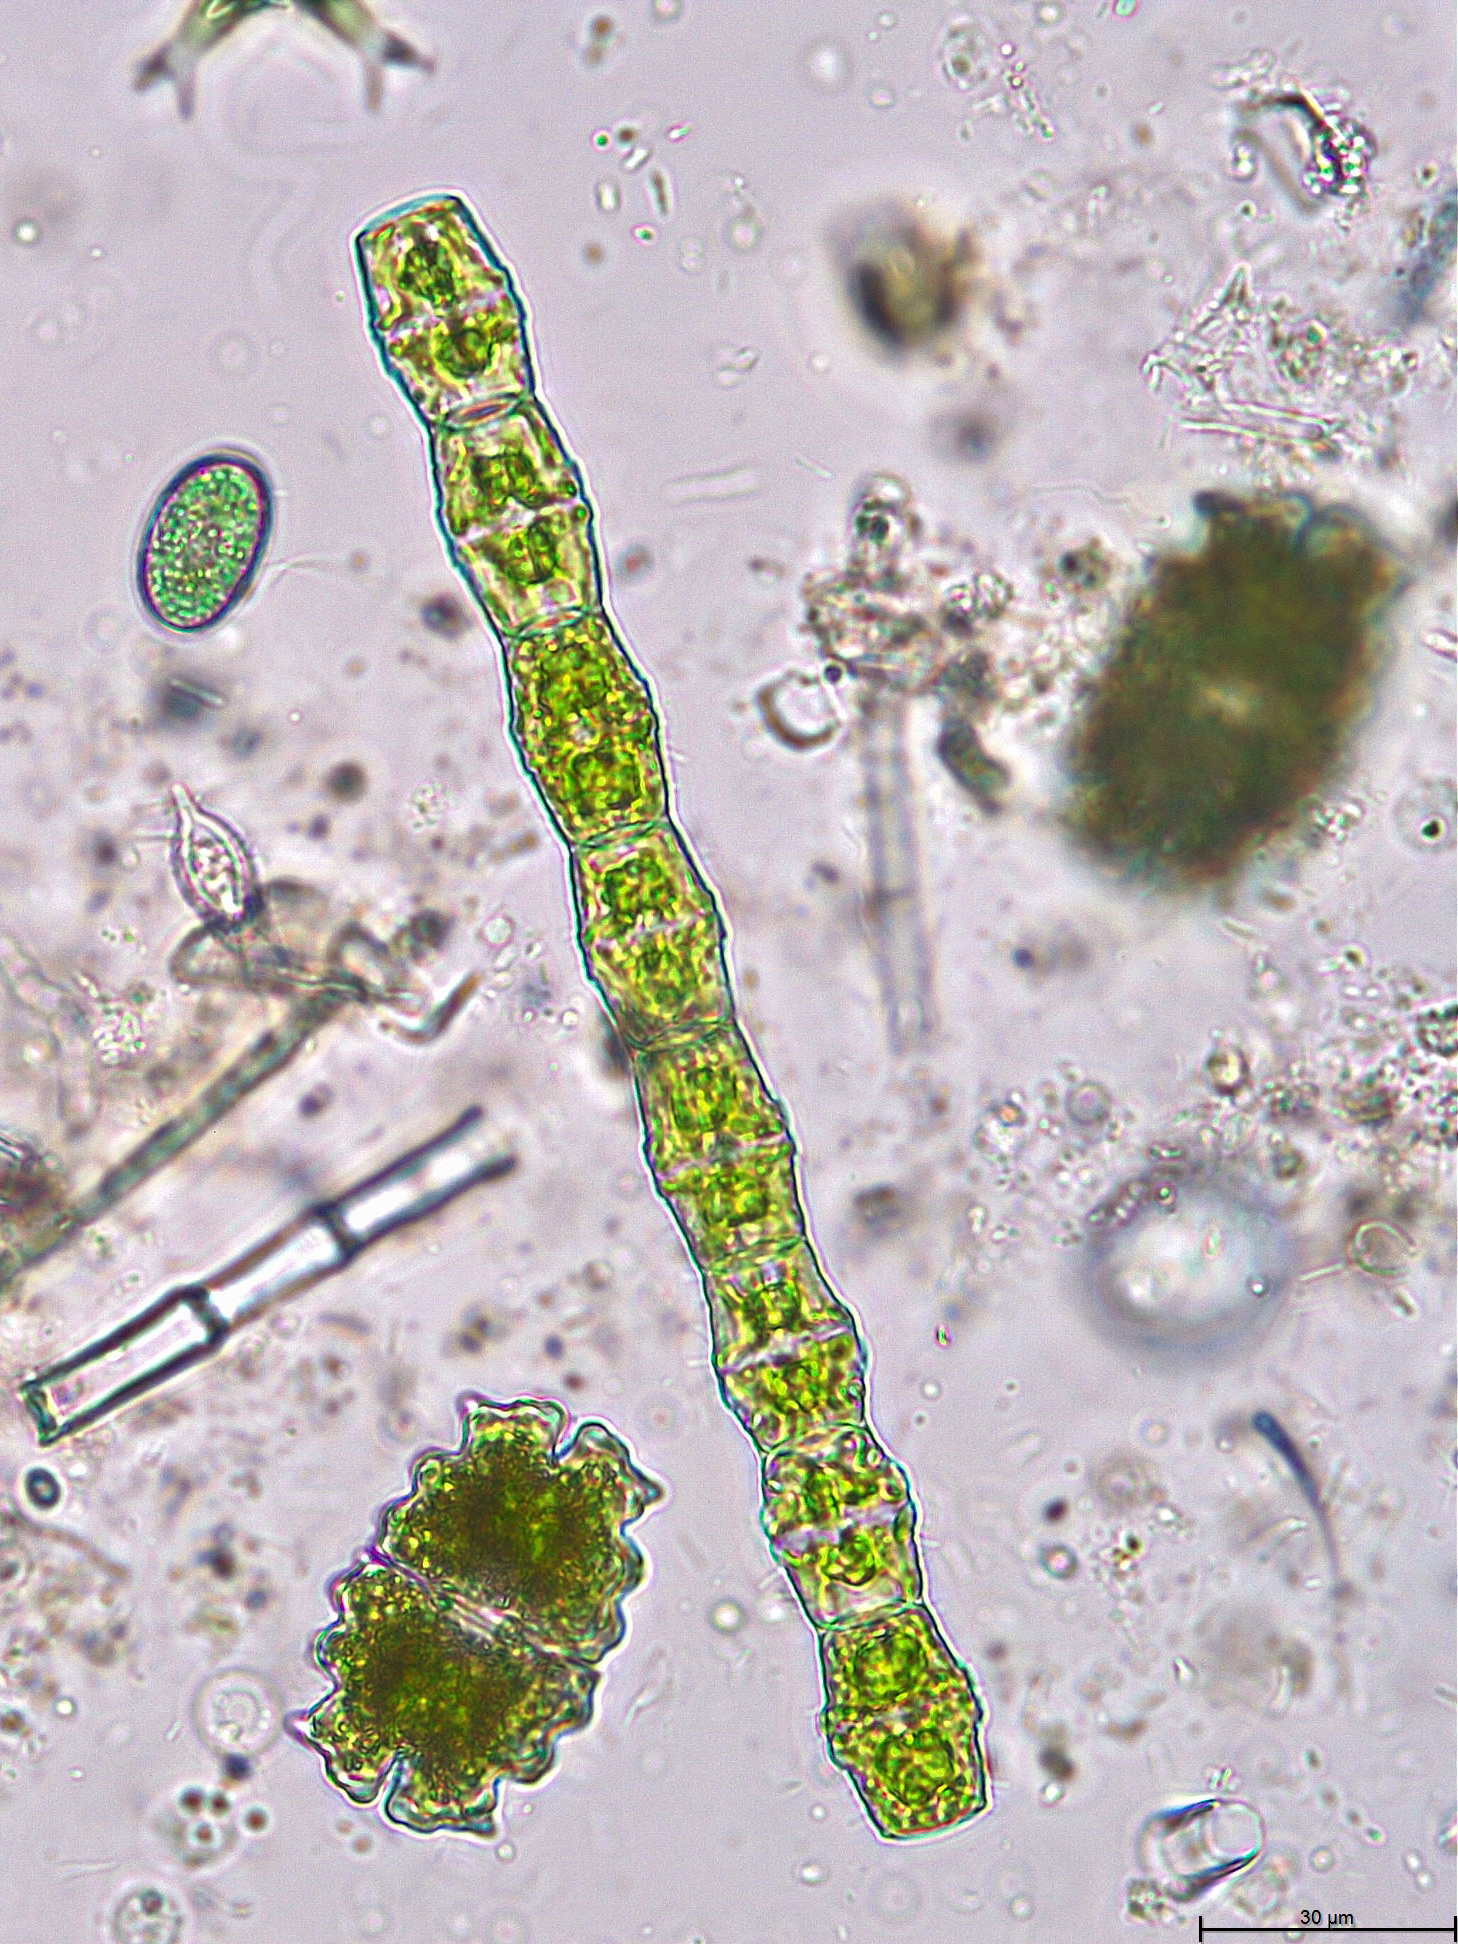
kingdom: Plantae
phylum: Charophyta
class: Conjugatophyceae
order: Desmidiales
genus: Bambusina
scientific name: Bambusina borreri
